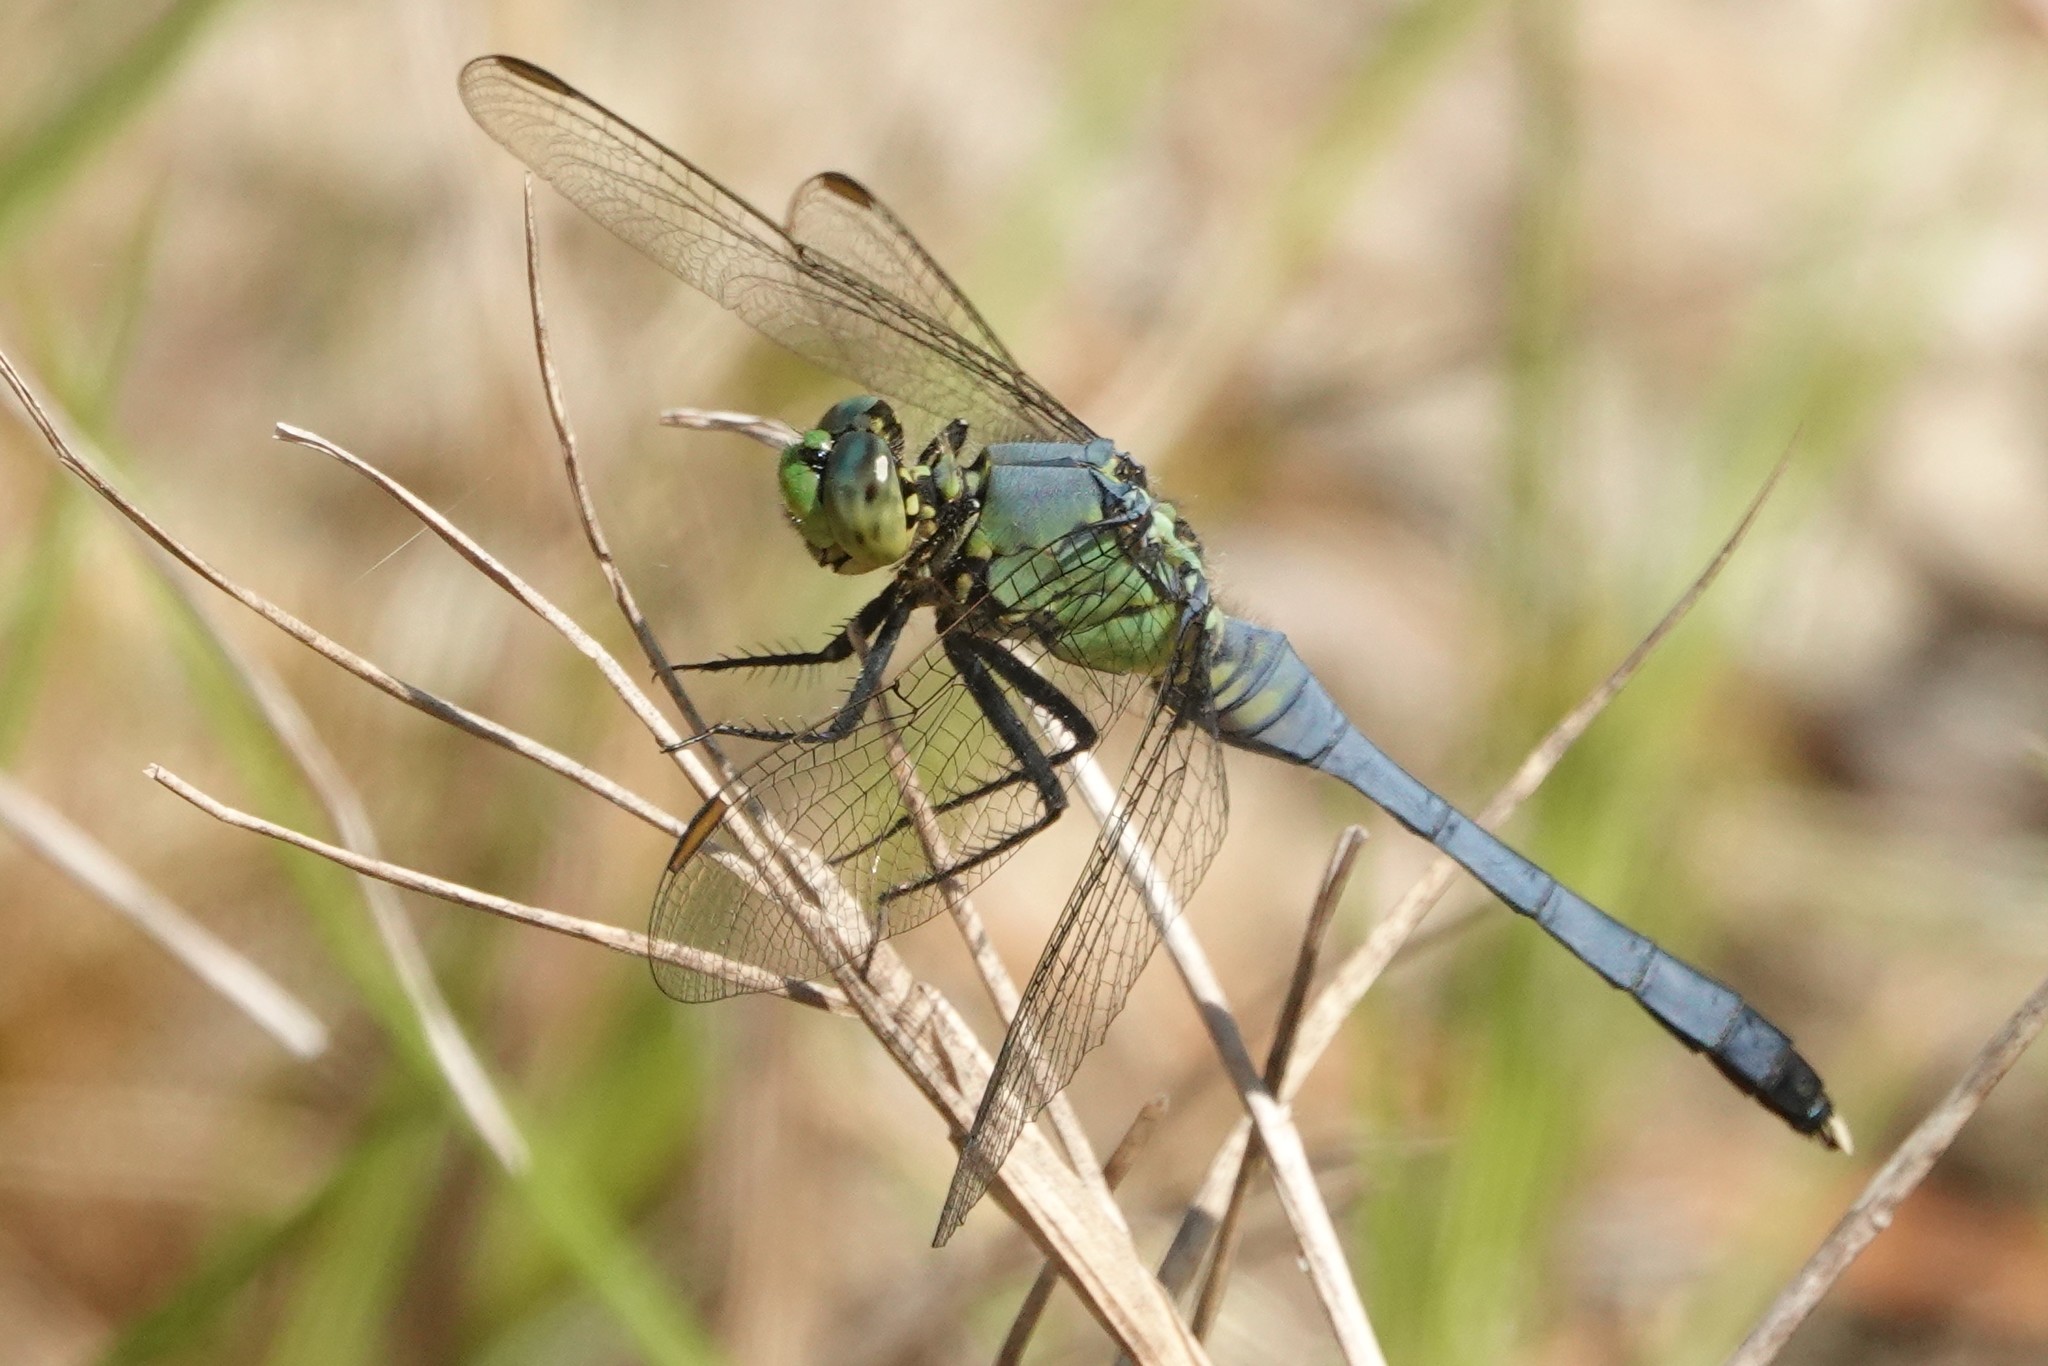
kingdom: Animalia
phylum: Arthropoda
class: Insecta
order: Odonata
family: Libellulidae
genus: Erythemis
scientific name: Erythemis simplicicollis
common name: Eastern pondhawk
